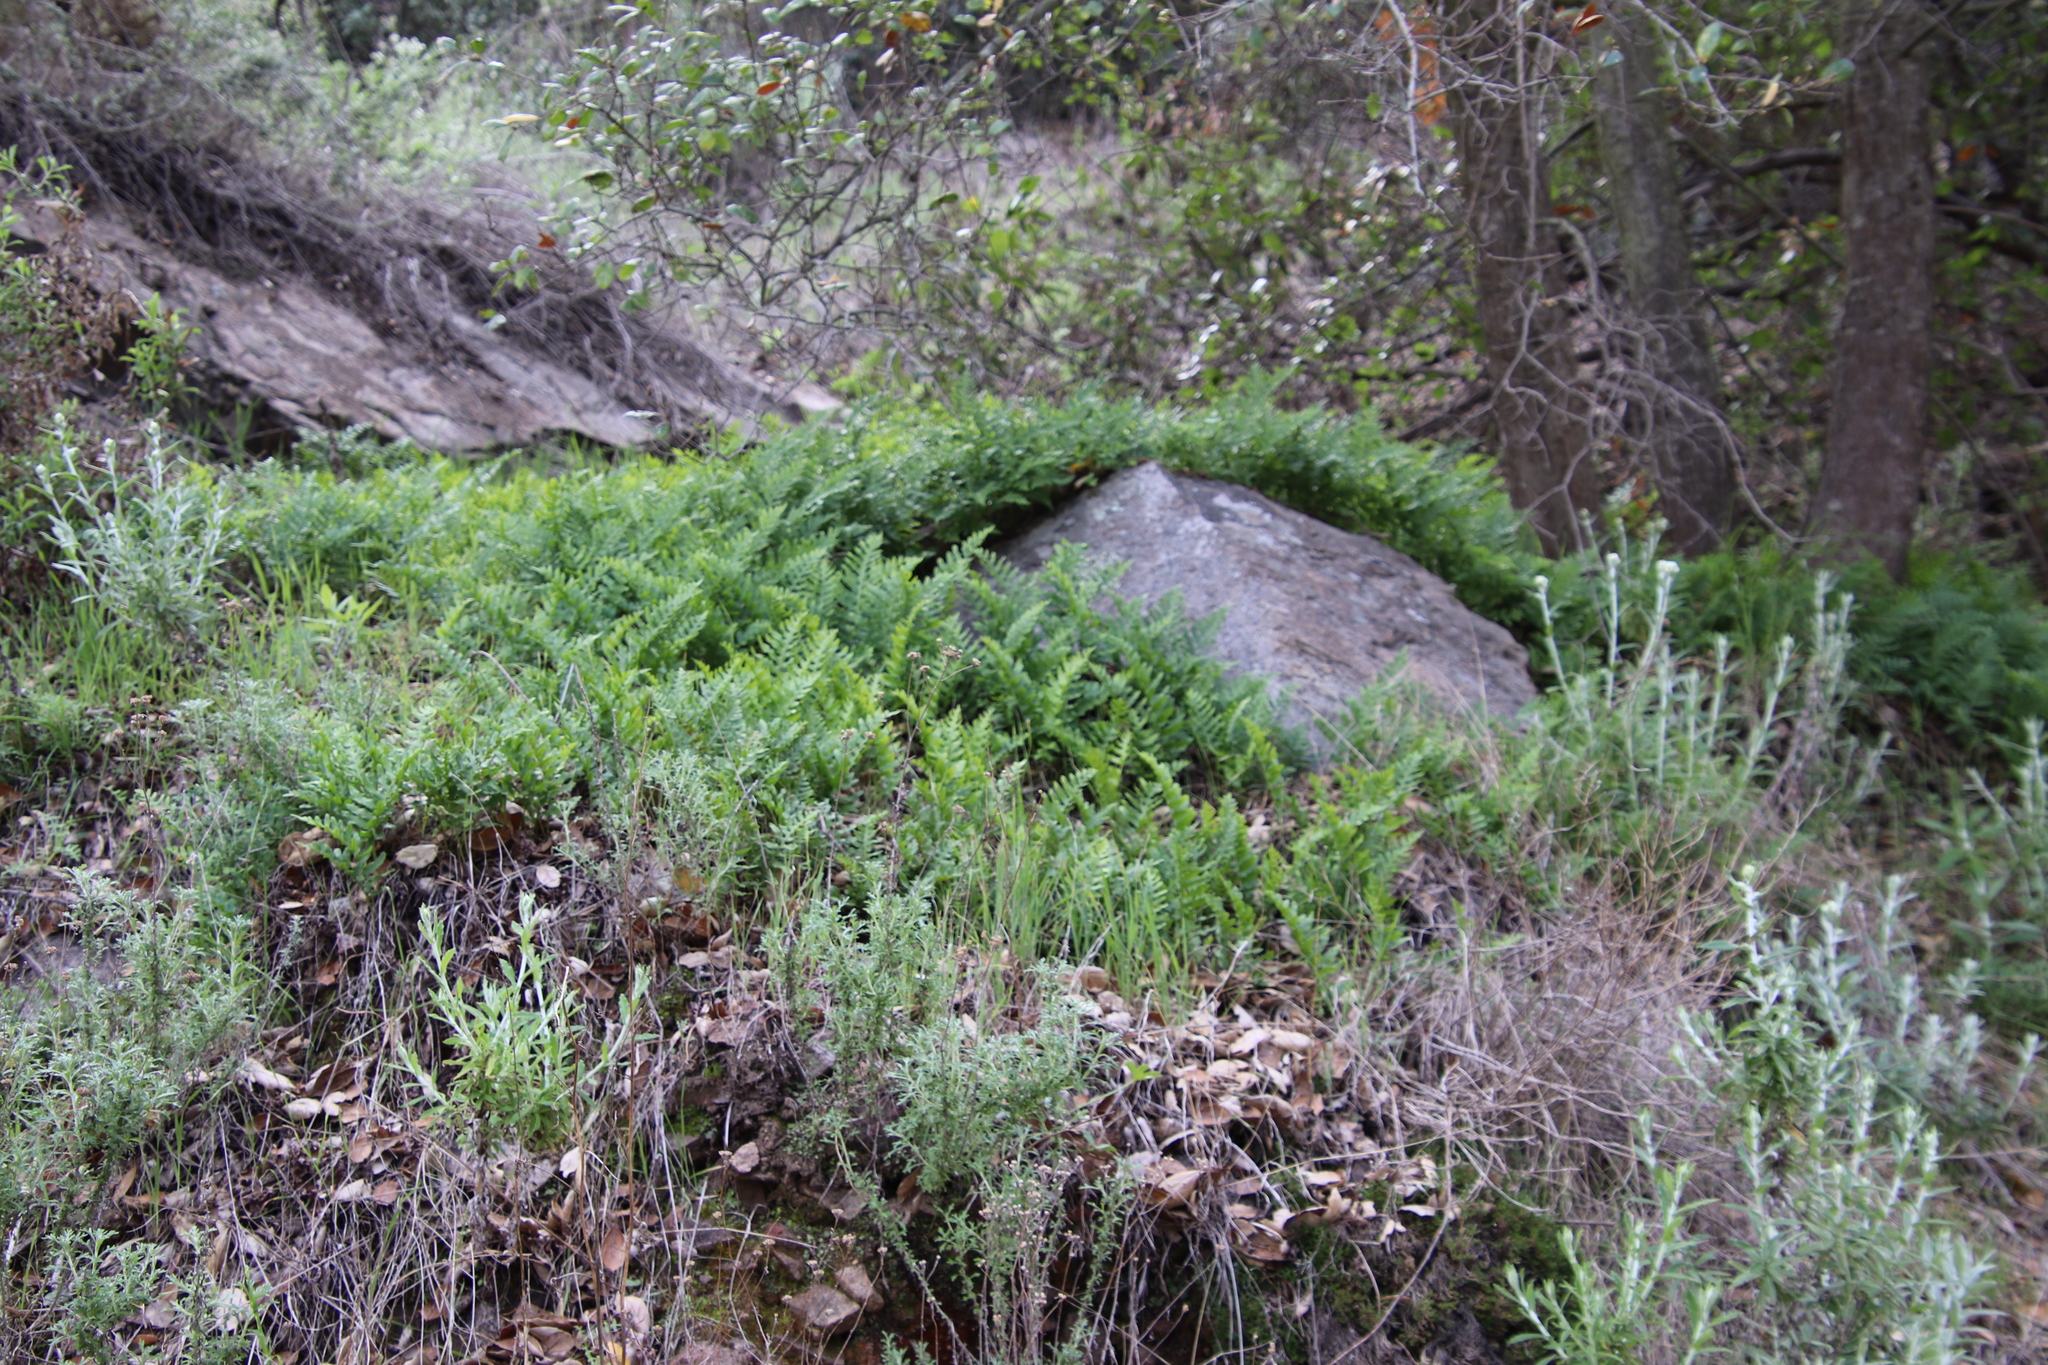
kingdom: Plantae
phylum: Tracheophyta
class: Polypodiopsida
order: Polypodiales
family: Polypodiaceae
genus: Polypodium
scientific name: Polypodium californicum
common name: California polypody
